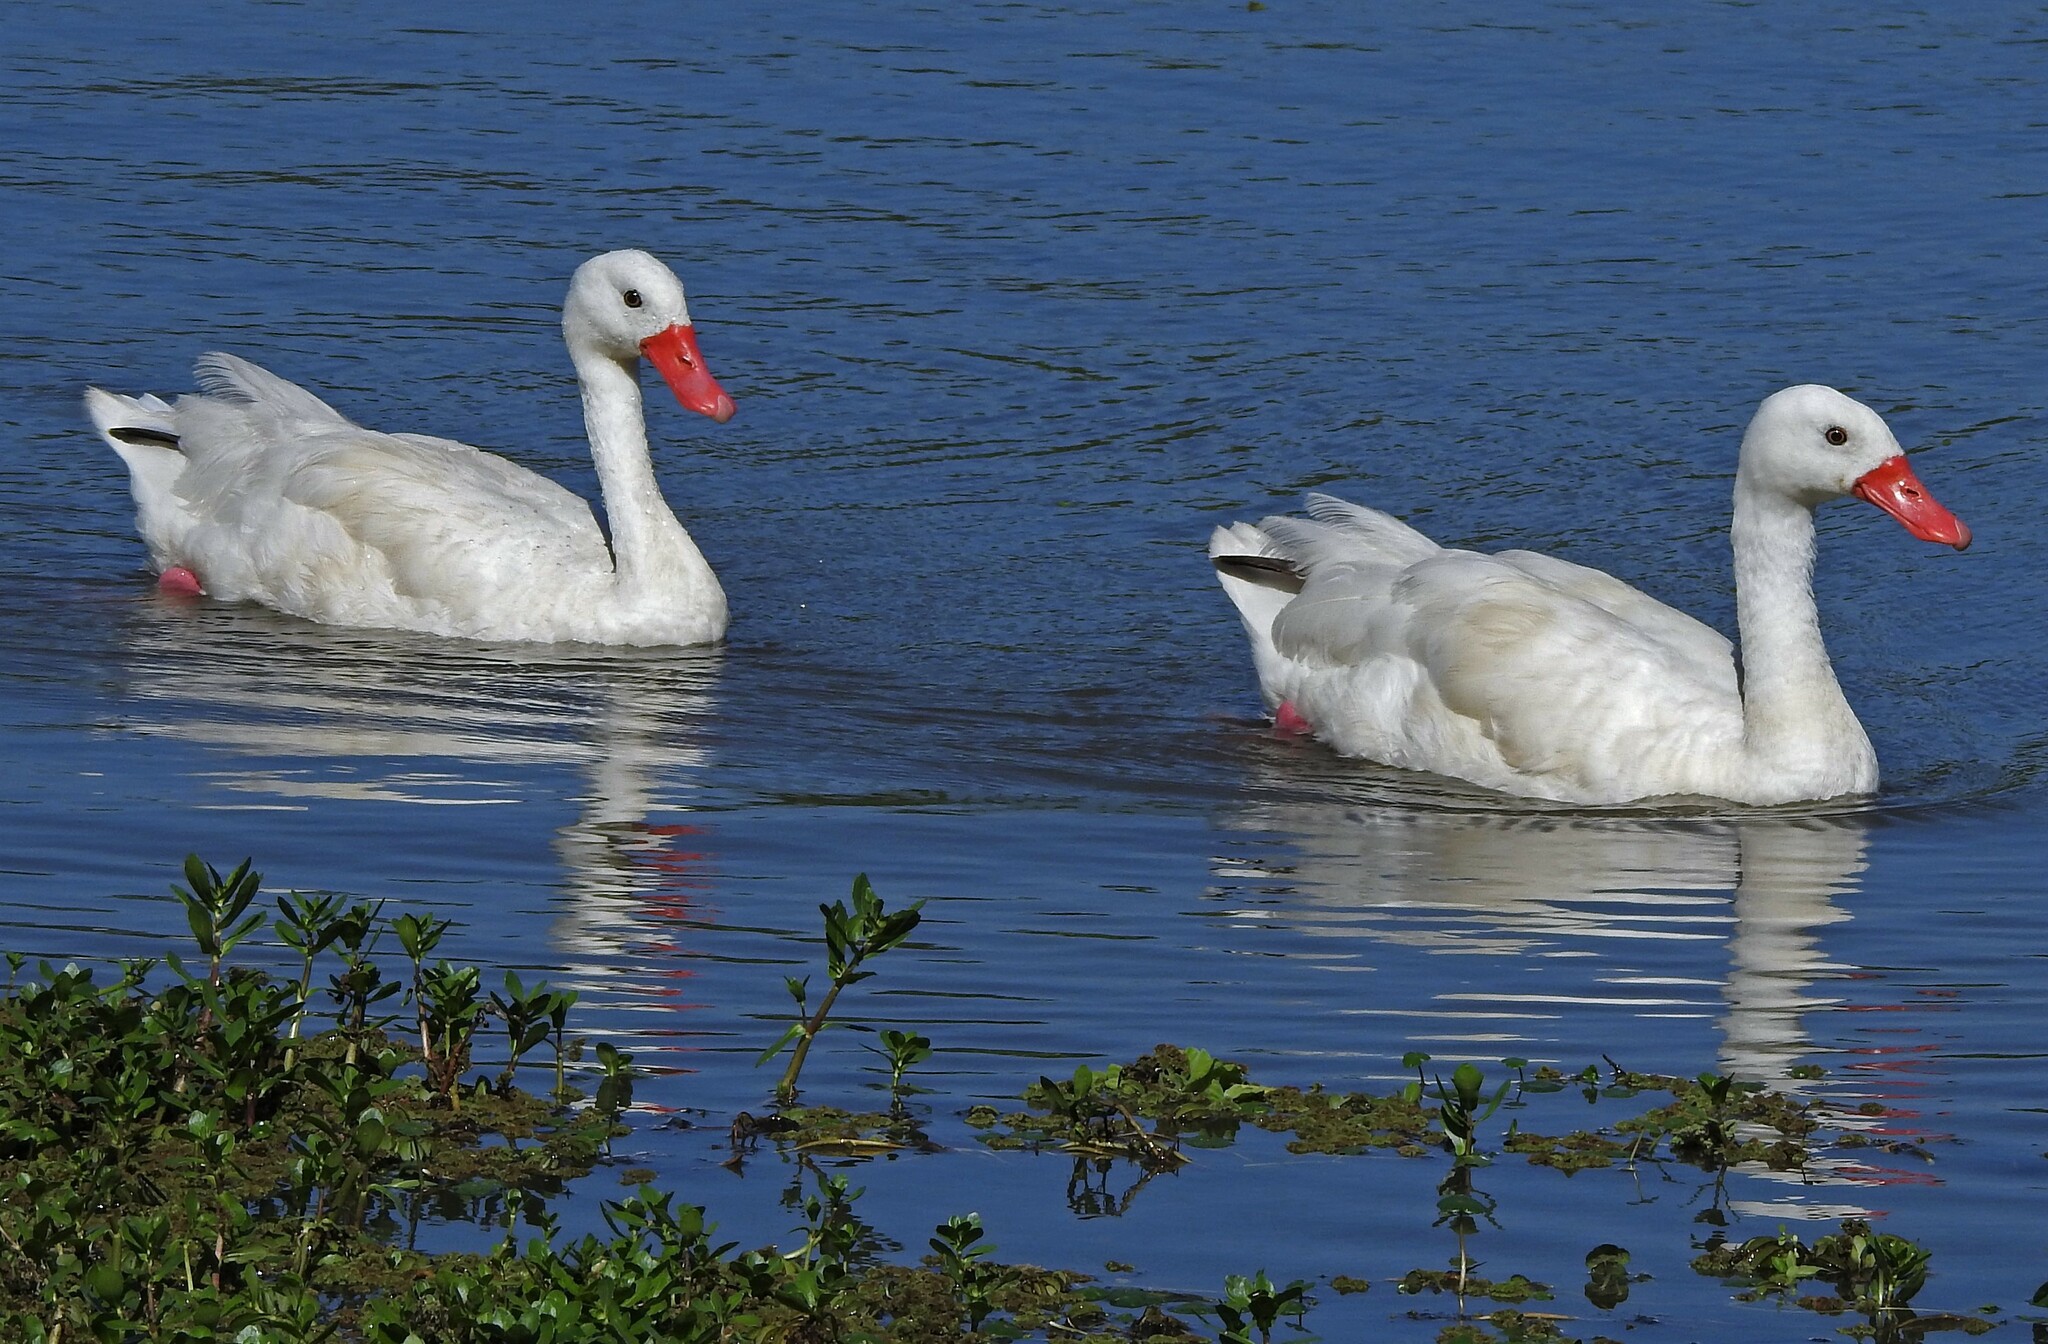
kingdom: Animalia
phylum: Chordata
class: Aves
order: Anseriformes
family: Anatidae
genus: Coscoroba
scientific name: Coscoroba coscoroba
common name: Coscoroba swan
